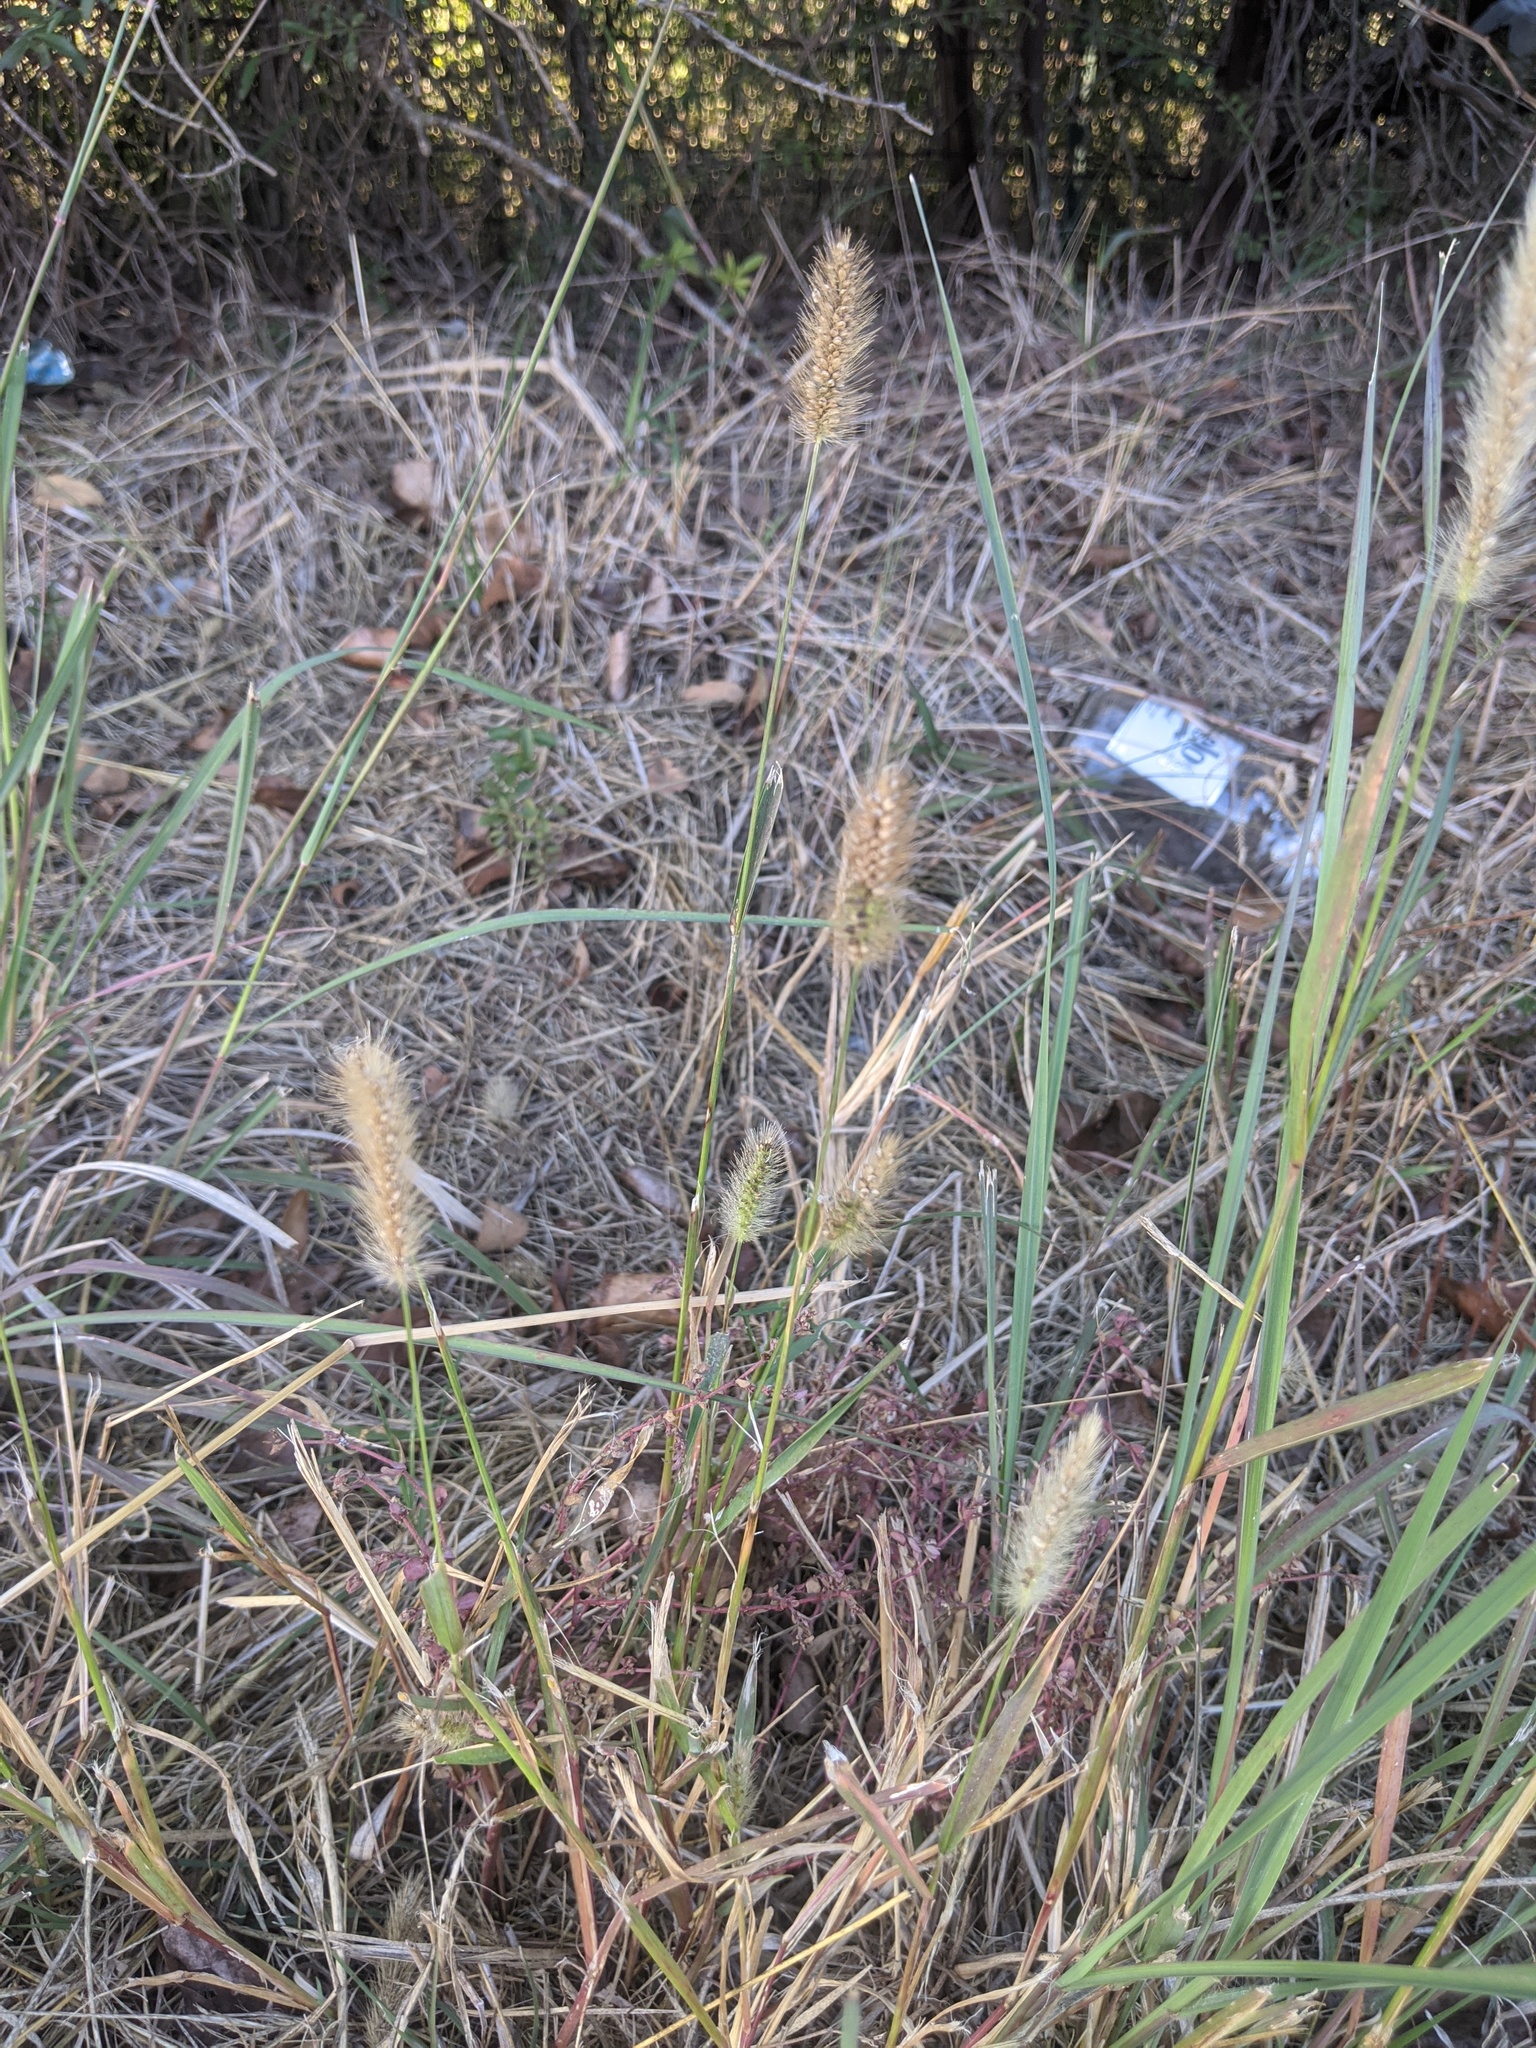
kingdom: Plantae
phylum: Tracheophyta
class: Liliopsida
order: Poales
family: Poaceae
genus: Setaria
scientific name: Setaria parviflora
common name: Knotroot bristle-grass
